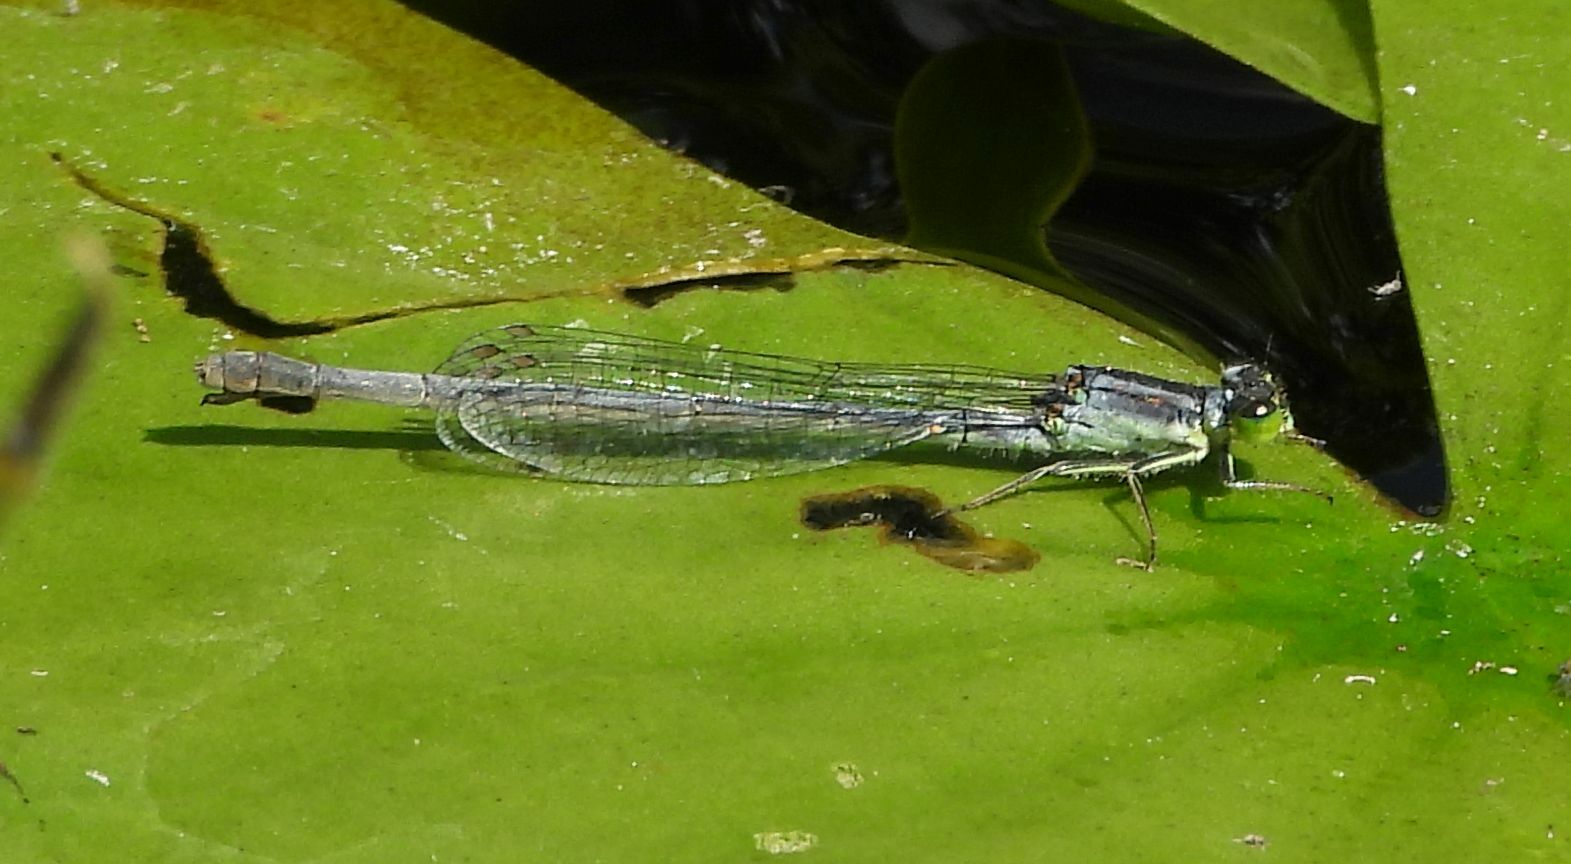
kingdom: Animalia
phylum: Arthropoda
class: Insecta
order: Odonata
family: Coenagrionidae
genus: Ischnura
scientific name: Ischnura verticalis
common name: Eastern forktail
